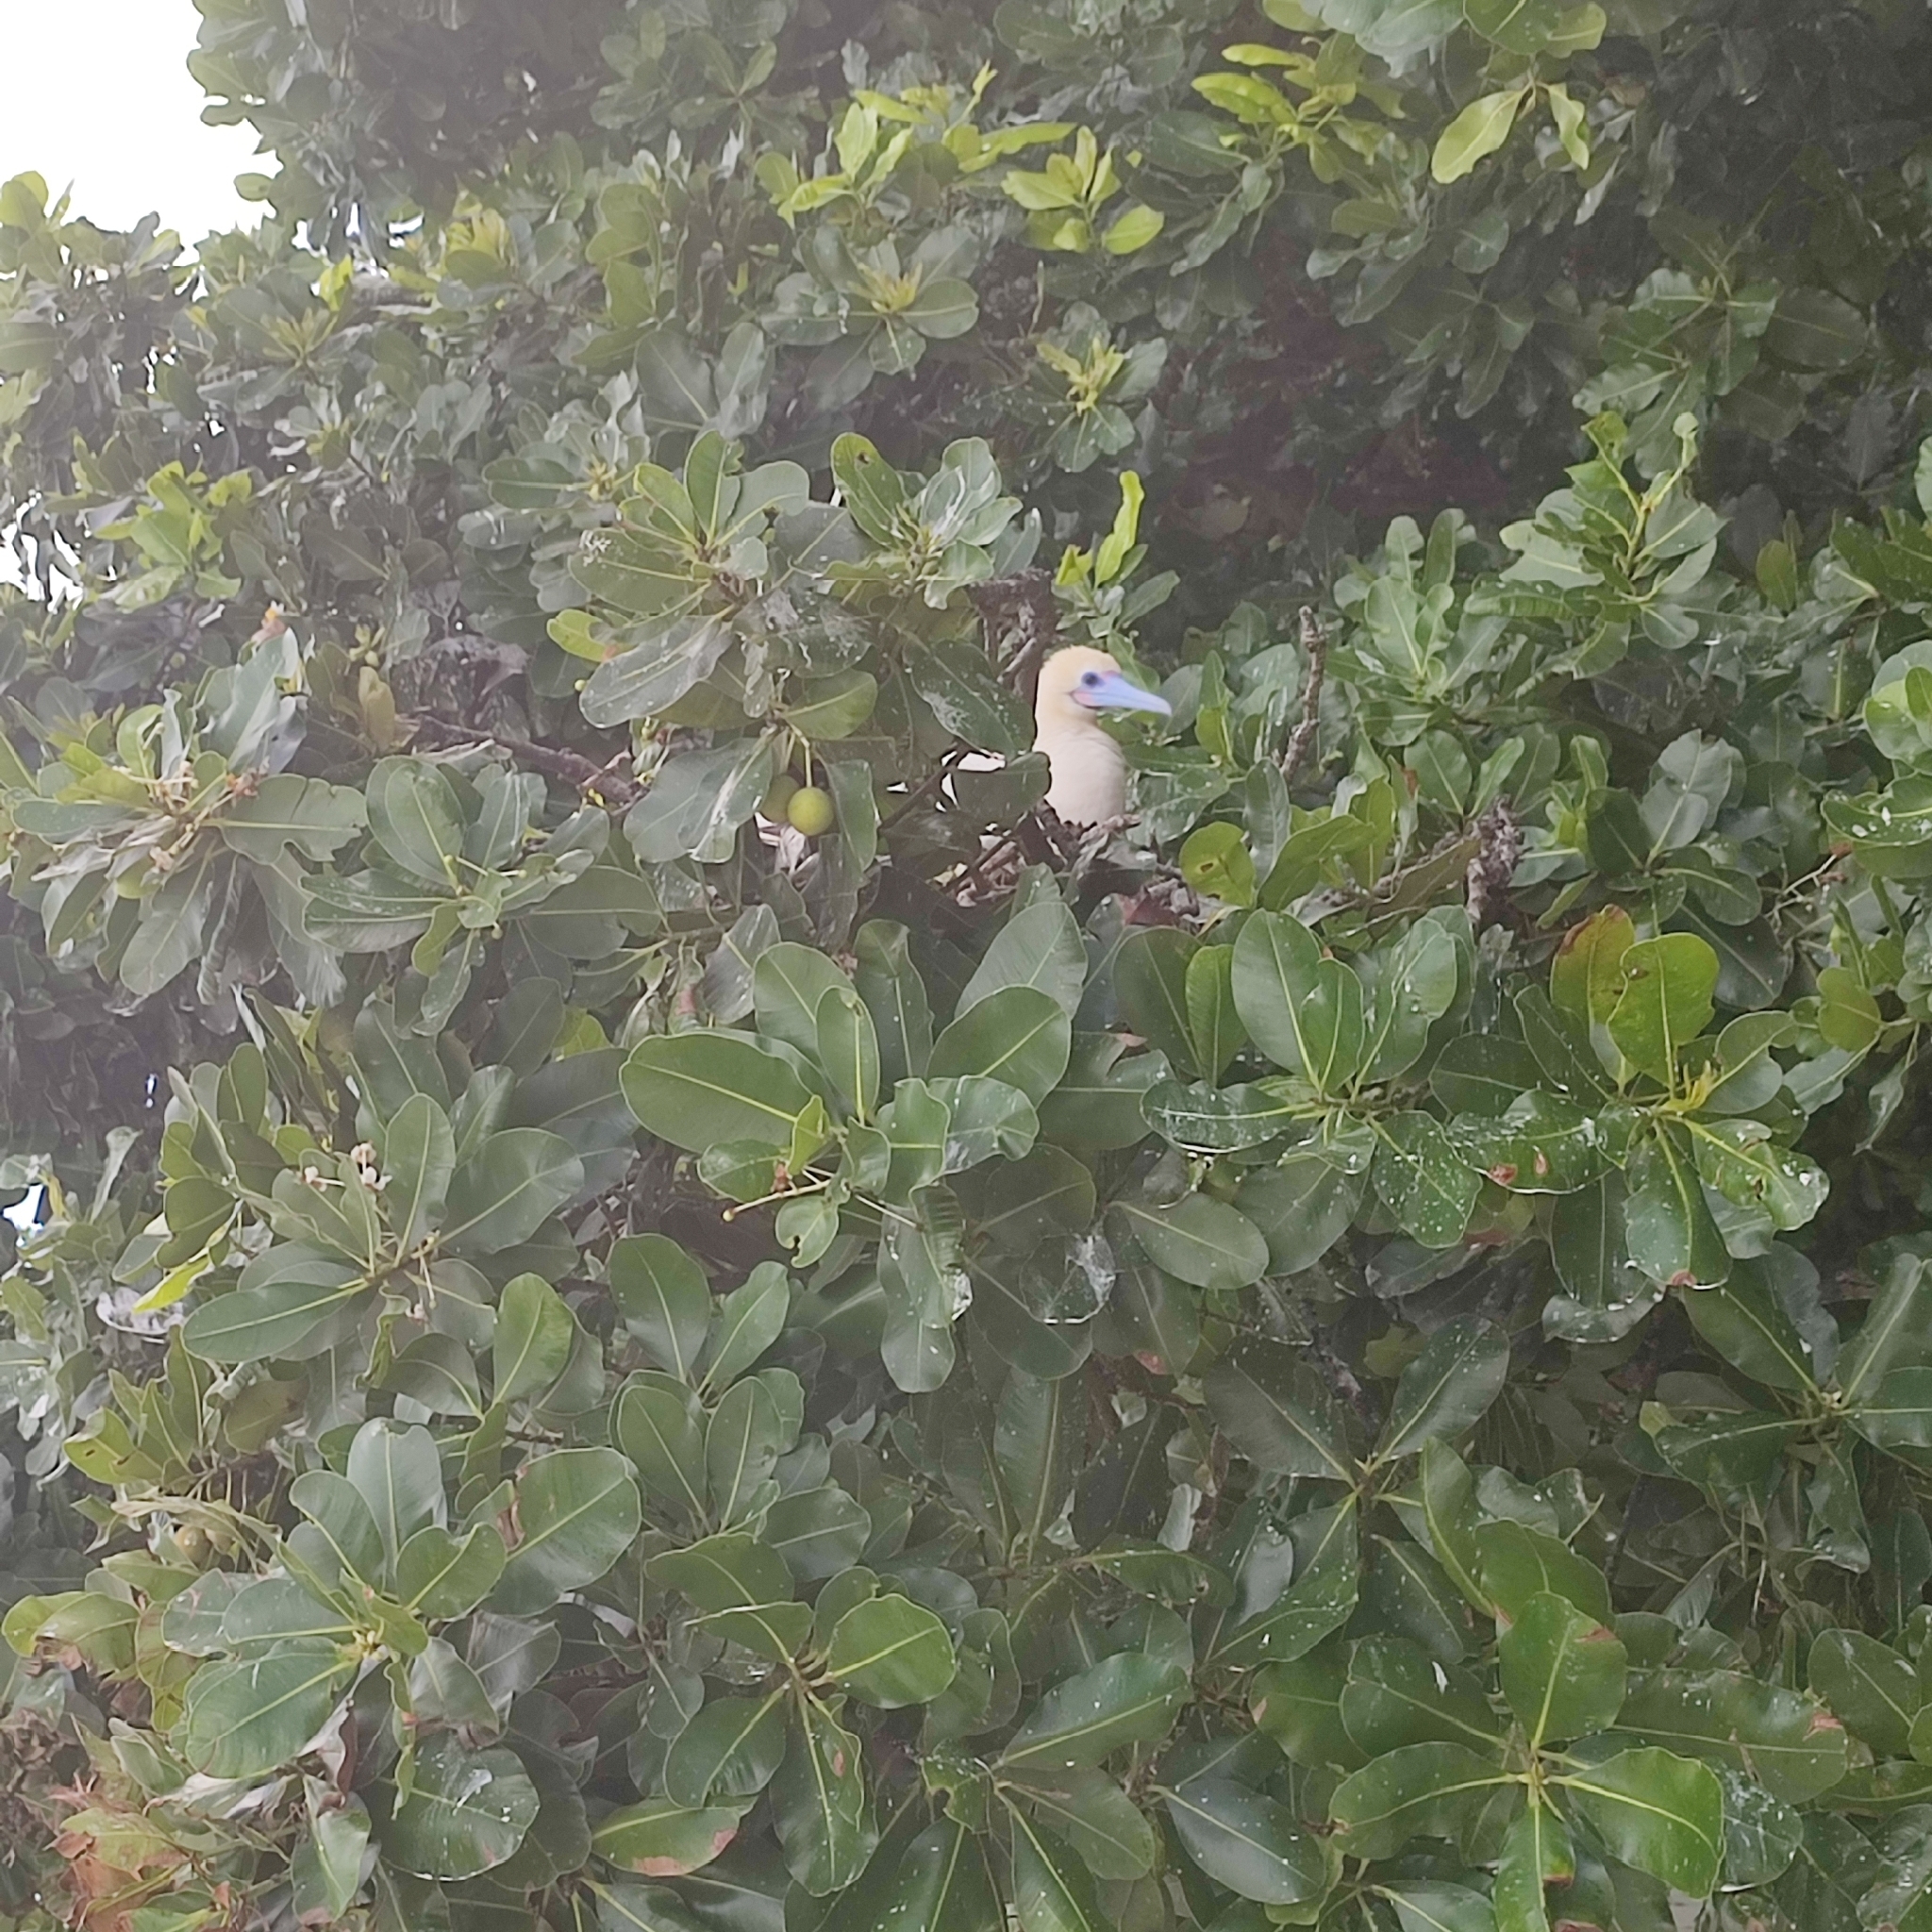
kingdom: Animalia
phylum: Chordata
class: Aves
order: Suliformes
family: Sulidae
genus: Sula
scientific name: Sula sula
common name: Red-footed booby
